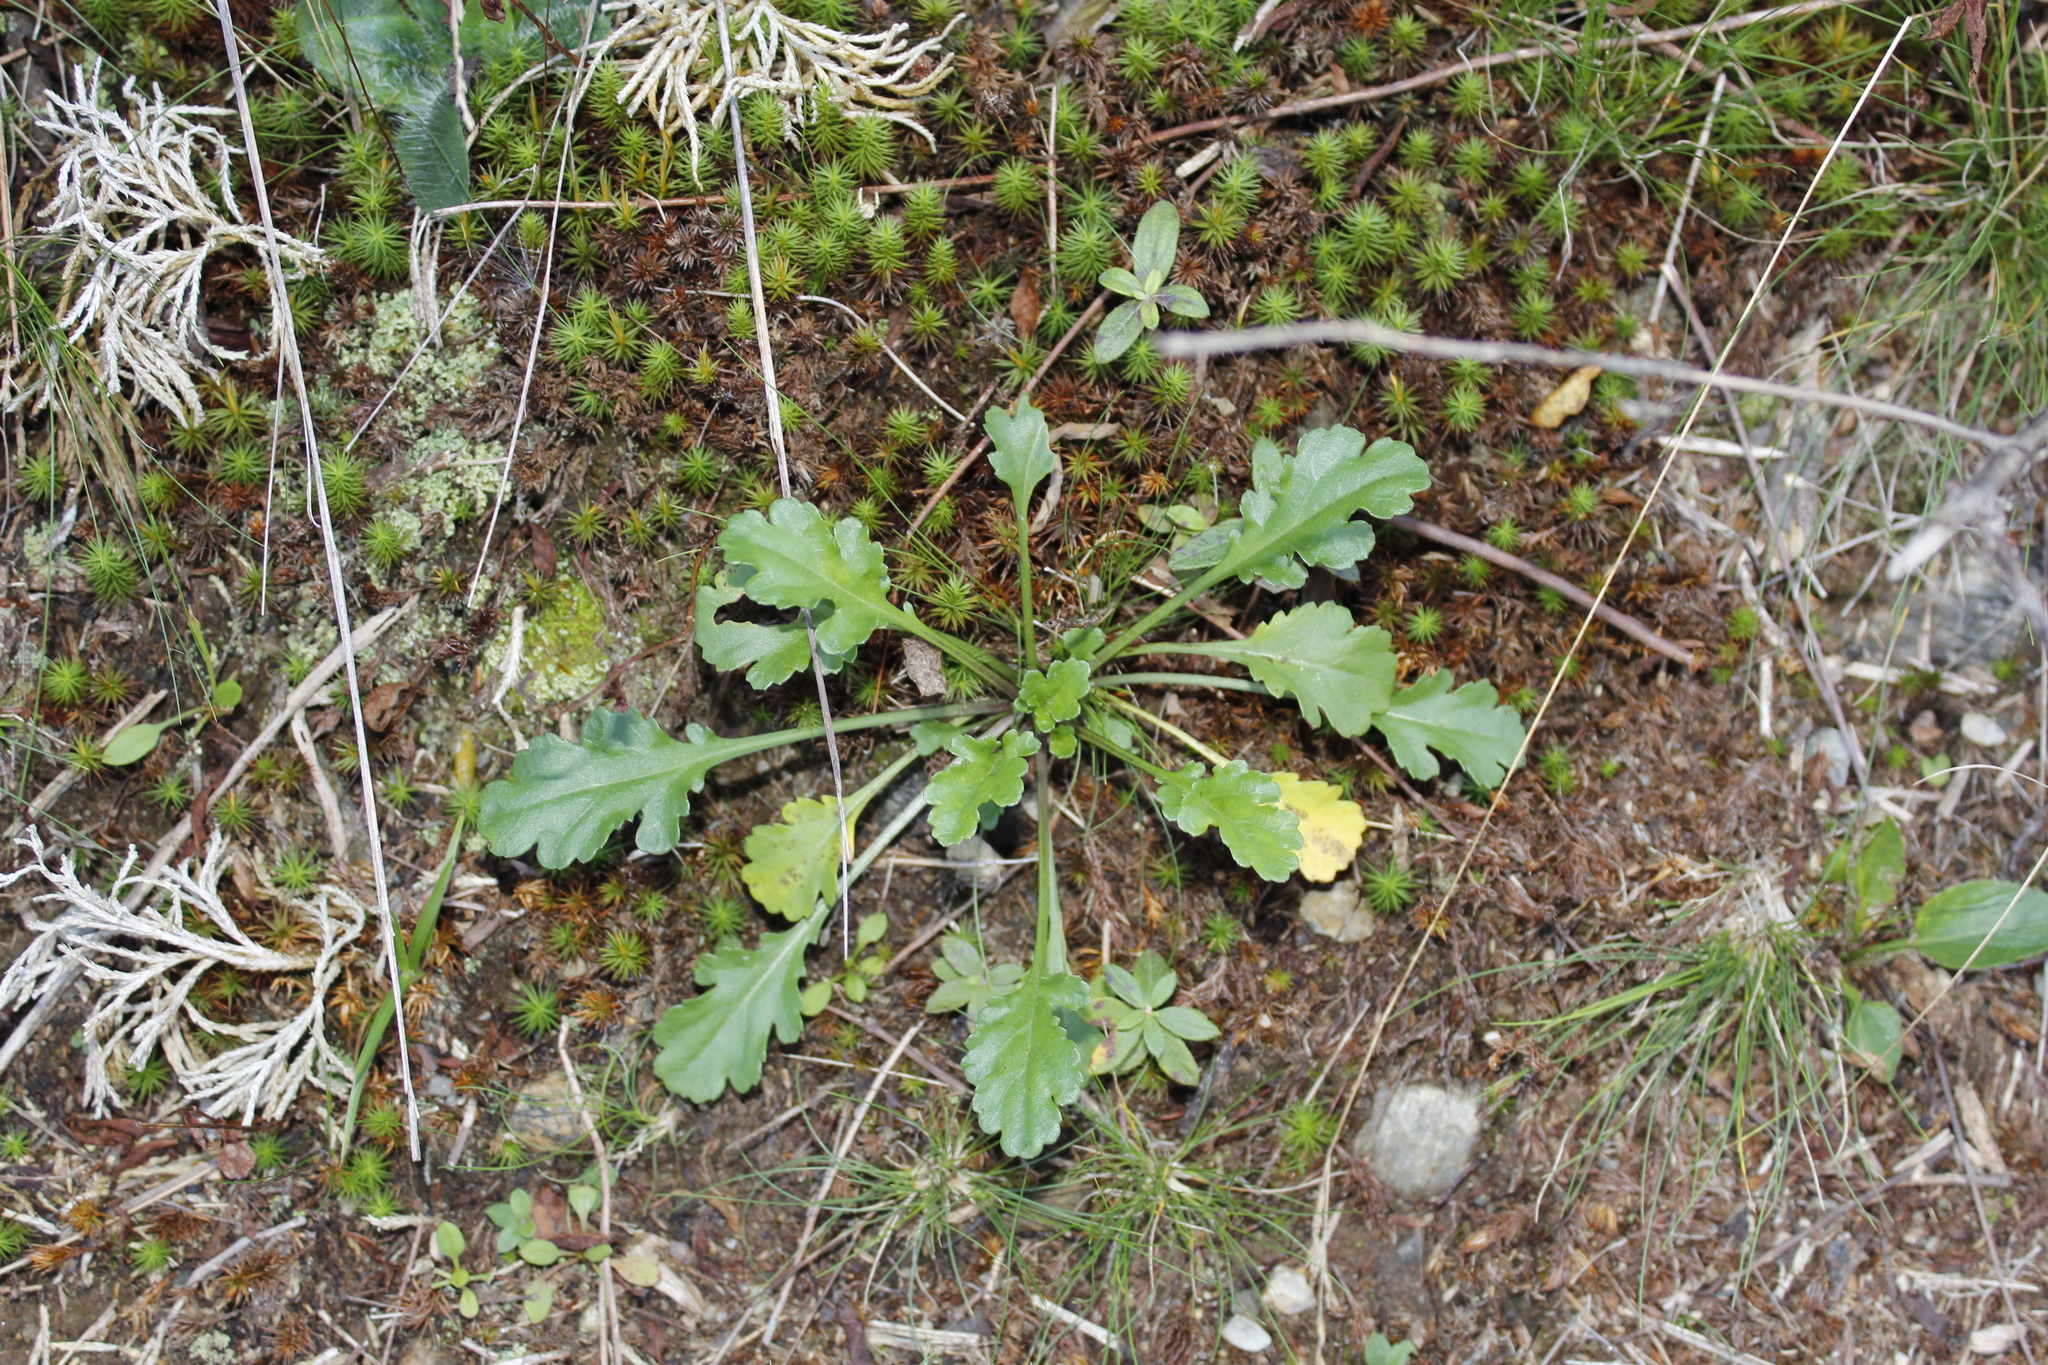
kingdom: Plantae
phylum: Tracheophyta
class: Magnoliopsida
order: Asterales
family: Asteraceae
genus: Leucanthemum
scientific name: Leucanthemum vulgare
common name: Oxeye daisy
